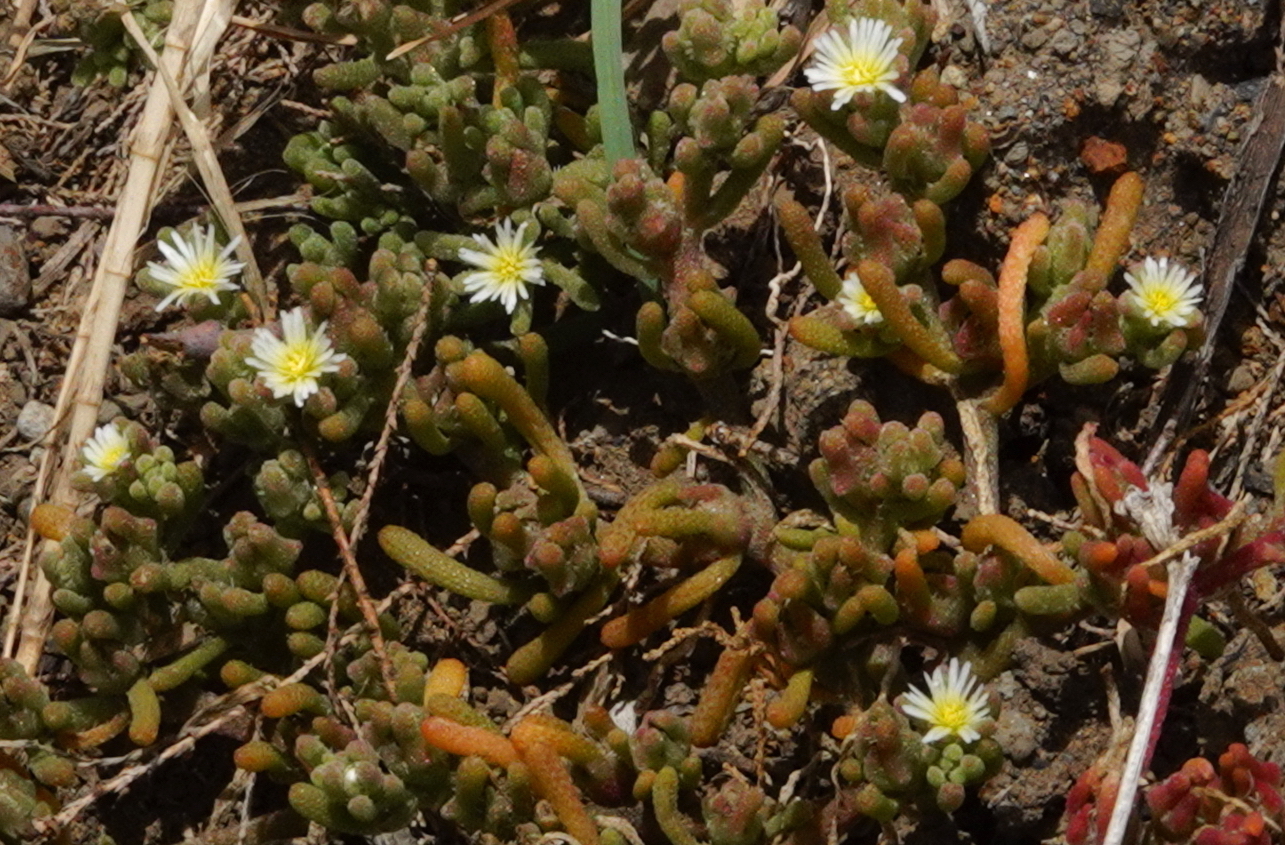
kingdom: Plantae
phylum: Tracheophyta
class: Magnoliopsida
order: Caryophyllales
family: Aizoaceae
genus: Mesembryanthemum
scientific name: Mesembryanthemum nodiflorum
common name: Slenderleaf iceplant
